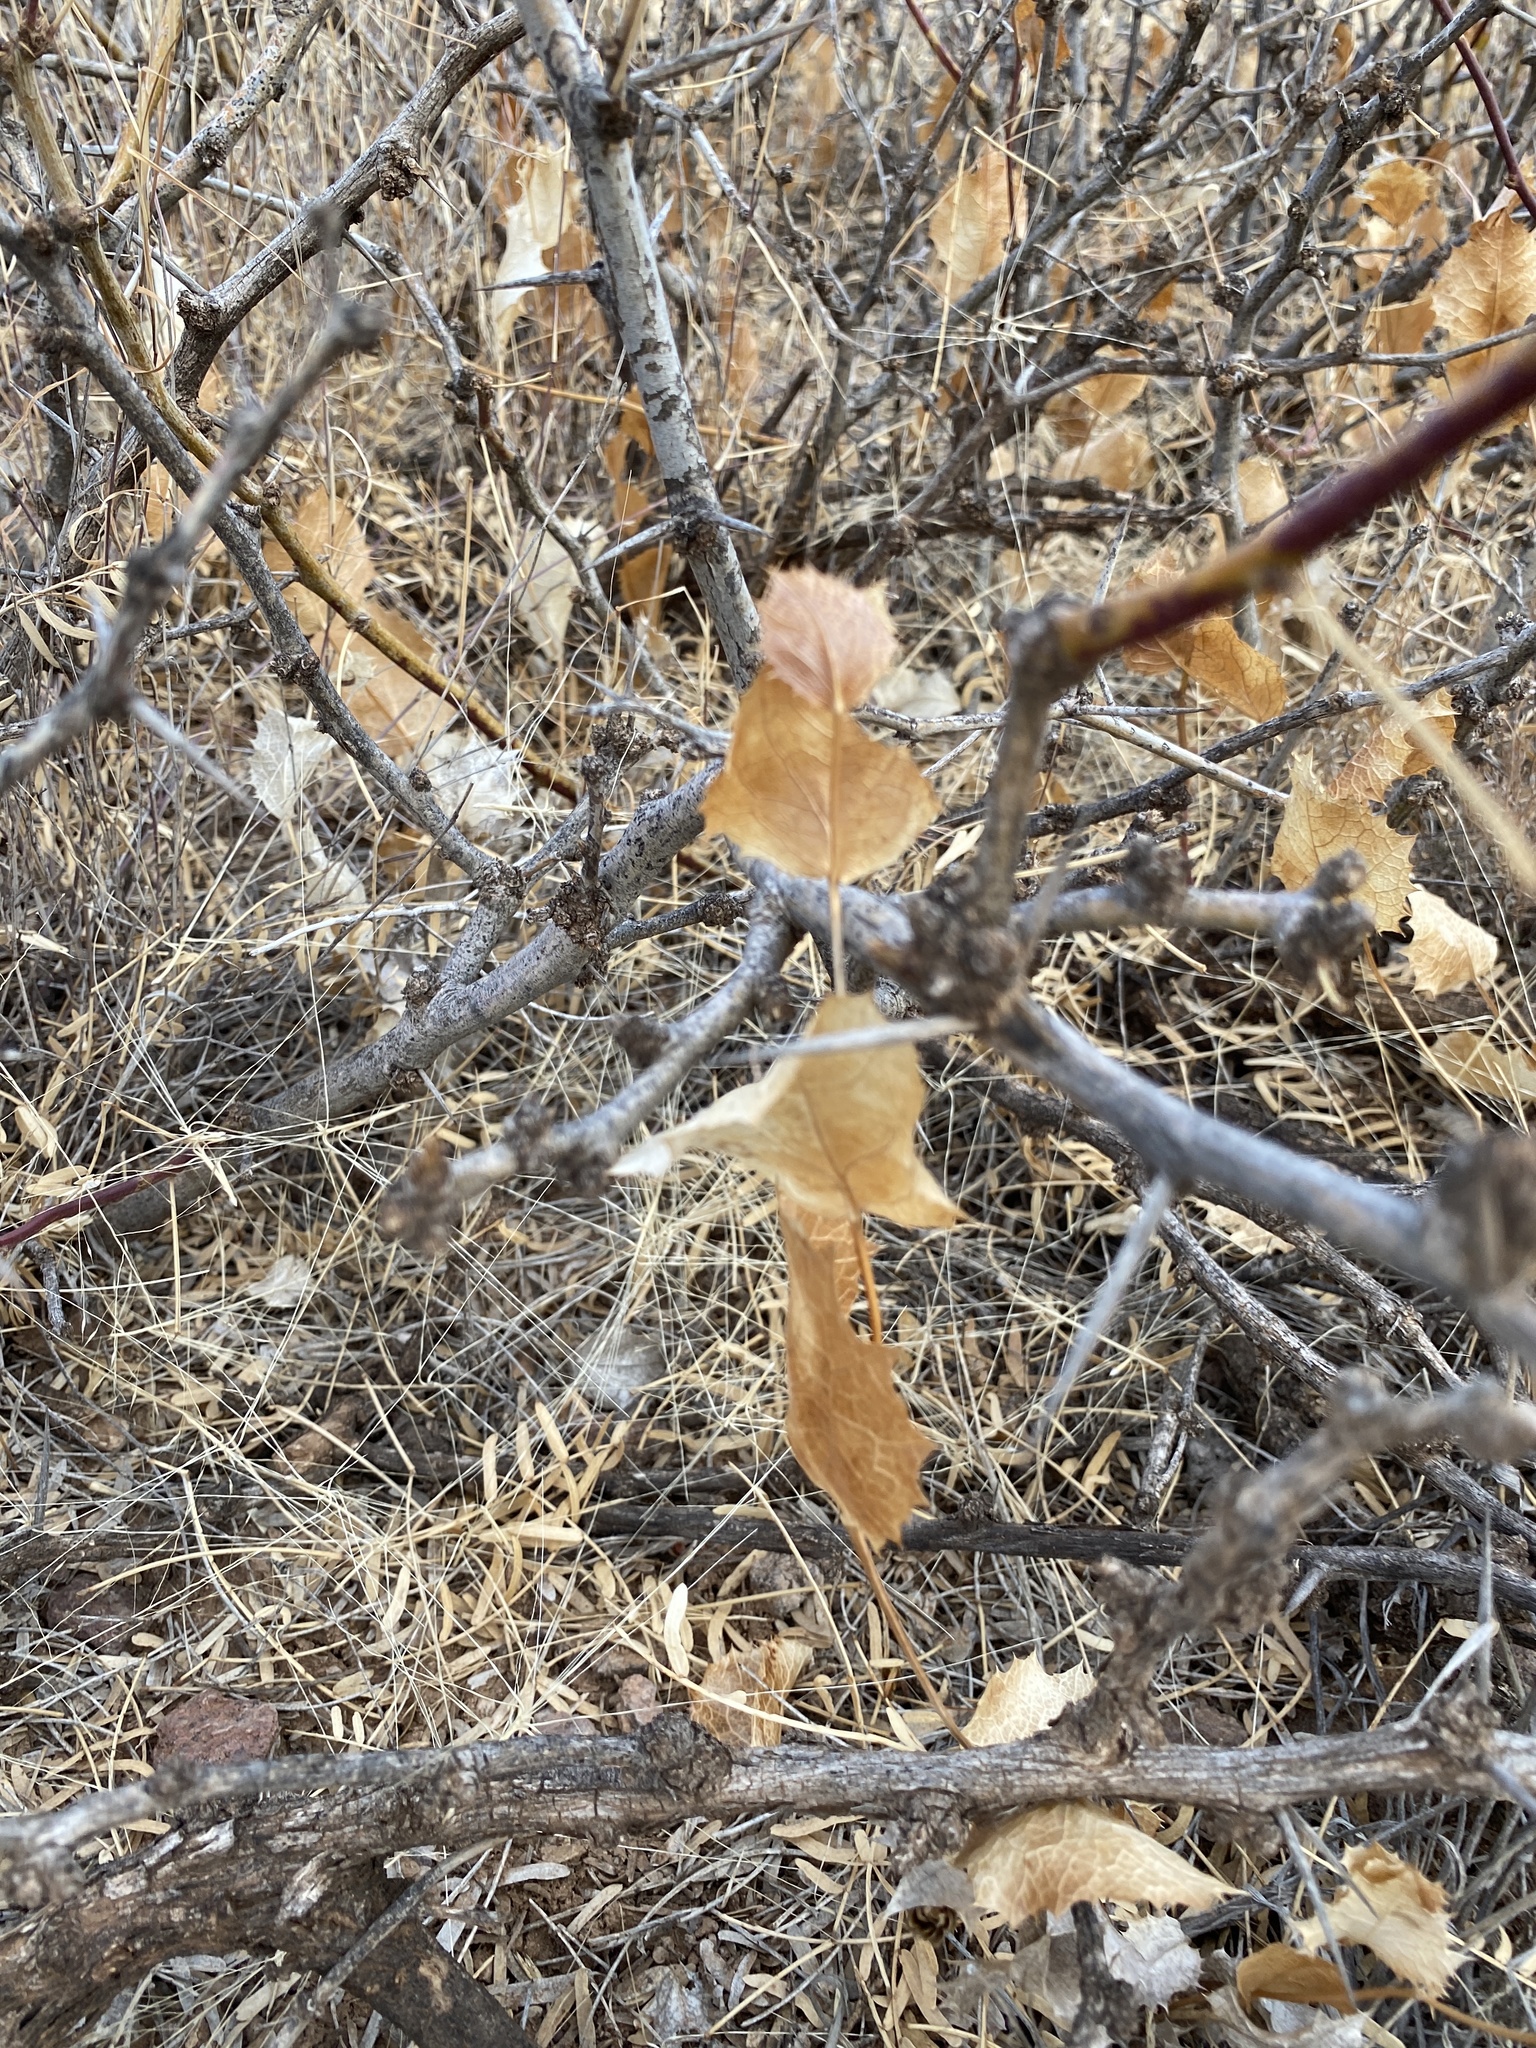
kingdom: Plantae
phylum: Tracheophyta
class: Magnoliopsida
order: Asterales
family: Asteraceae
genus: Acourtia
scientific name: Acourtia nana
